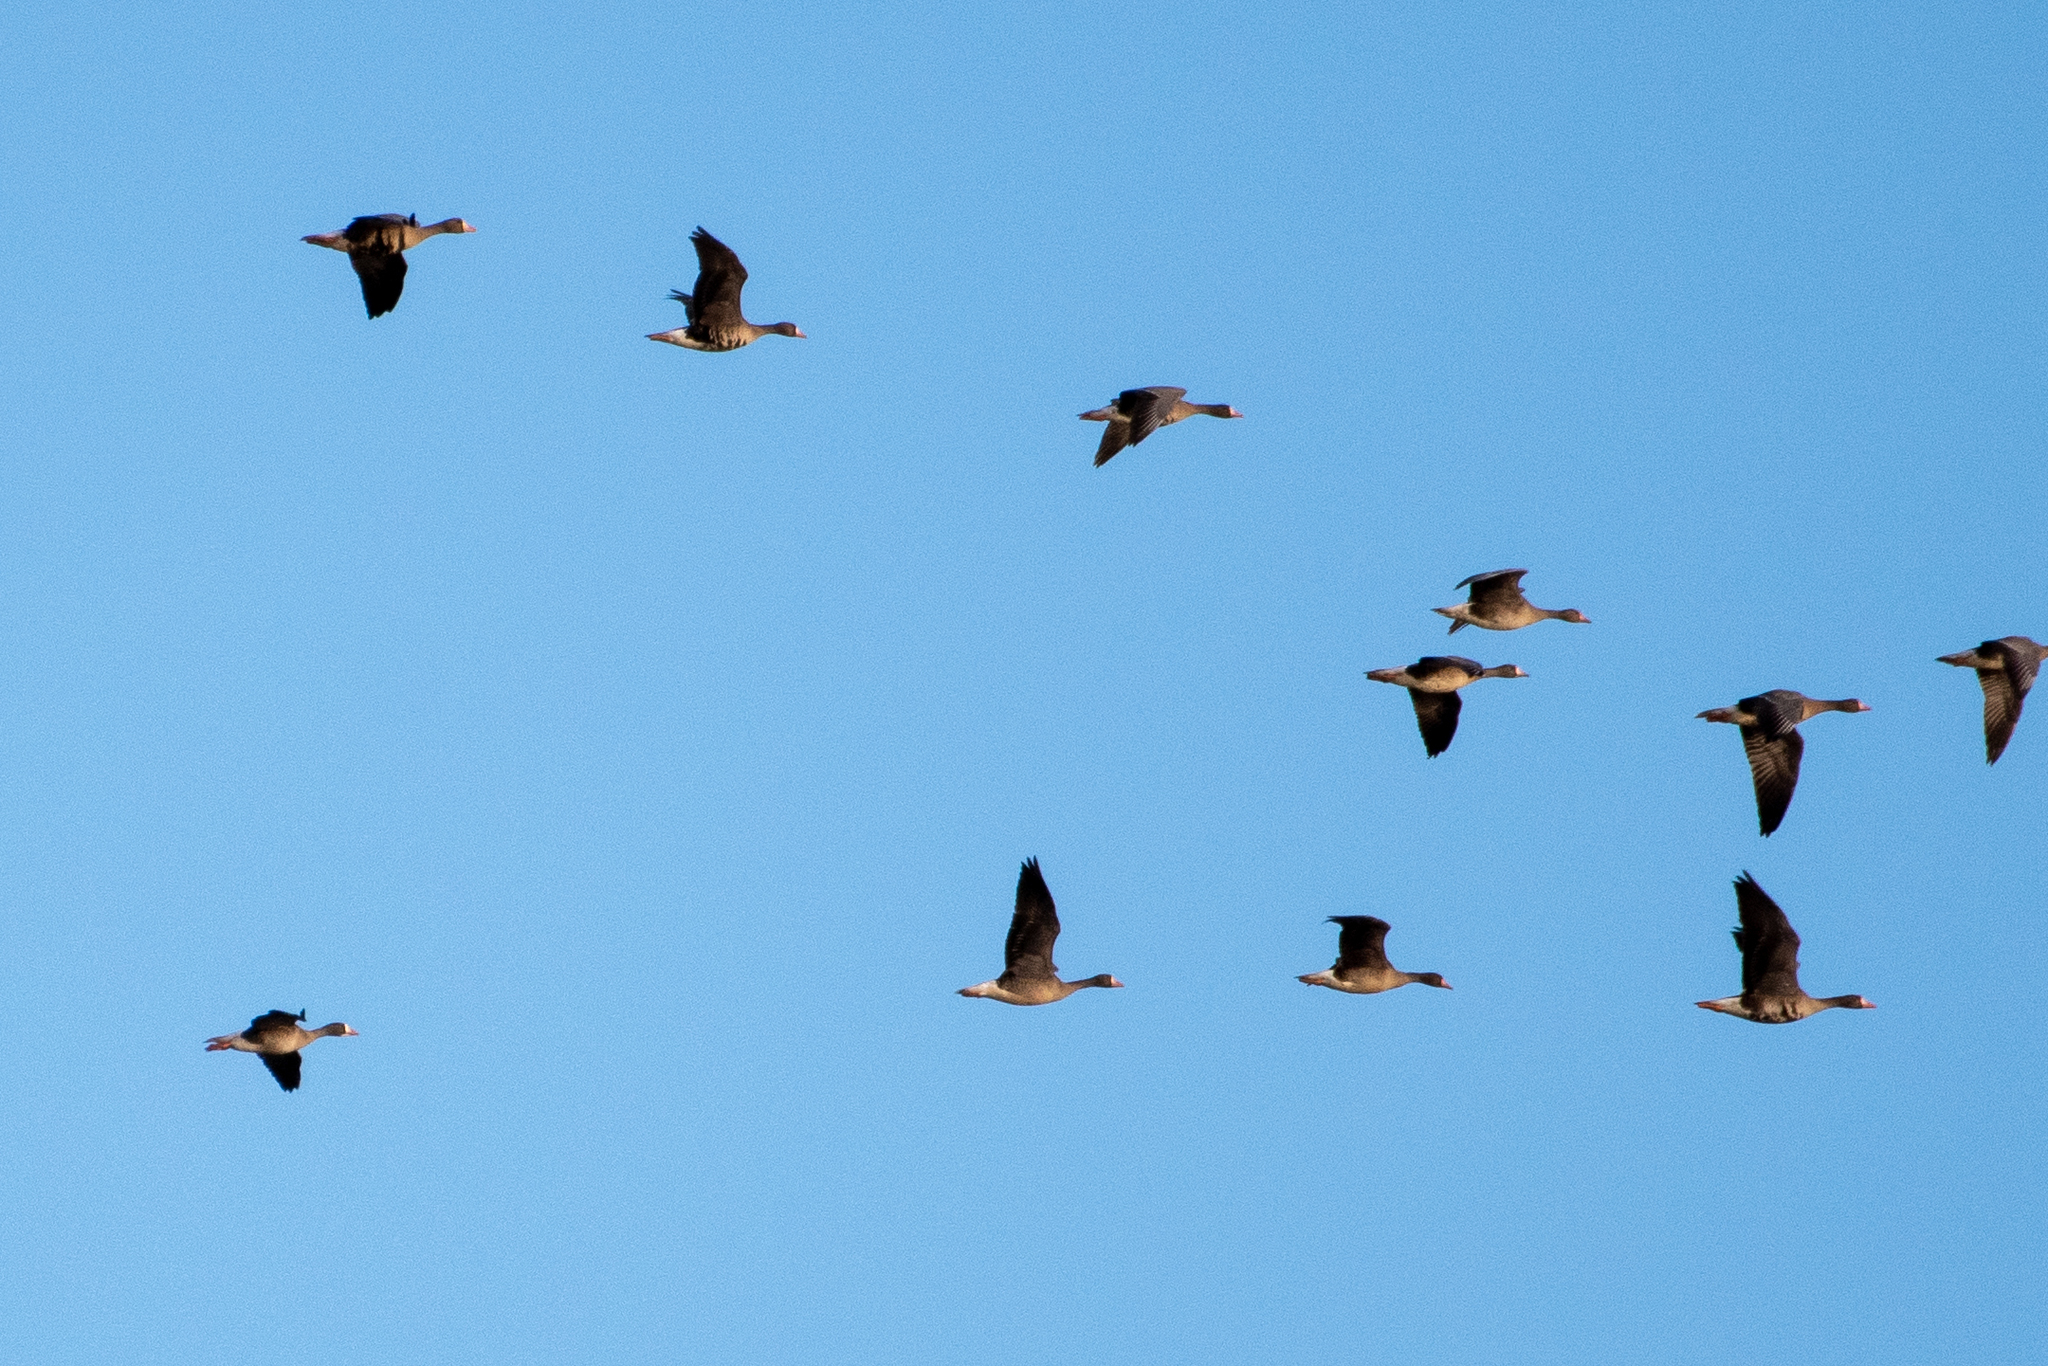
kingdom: Animalia
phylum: Chordata
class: Aves
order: Anseriformes
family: Anatidae
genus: Anser
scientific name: Anser albifrons
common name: Greater white-fronted goose
